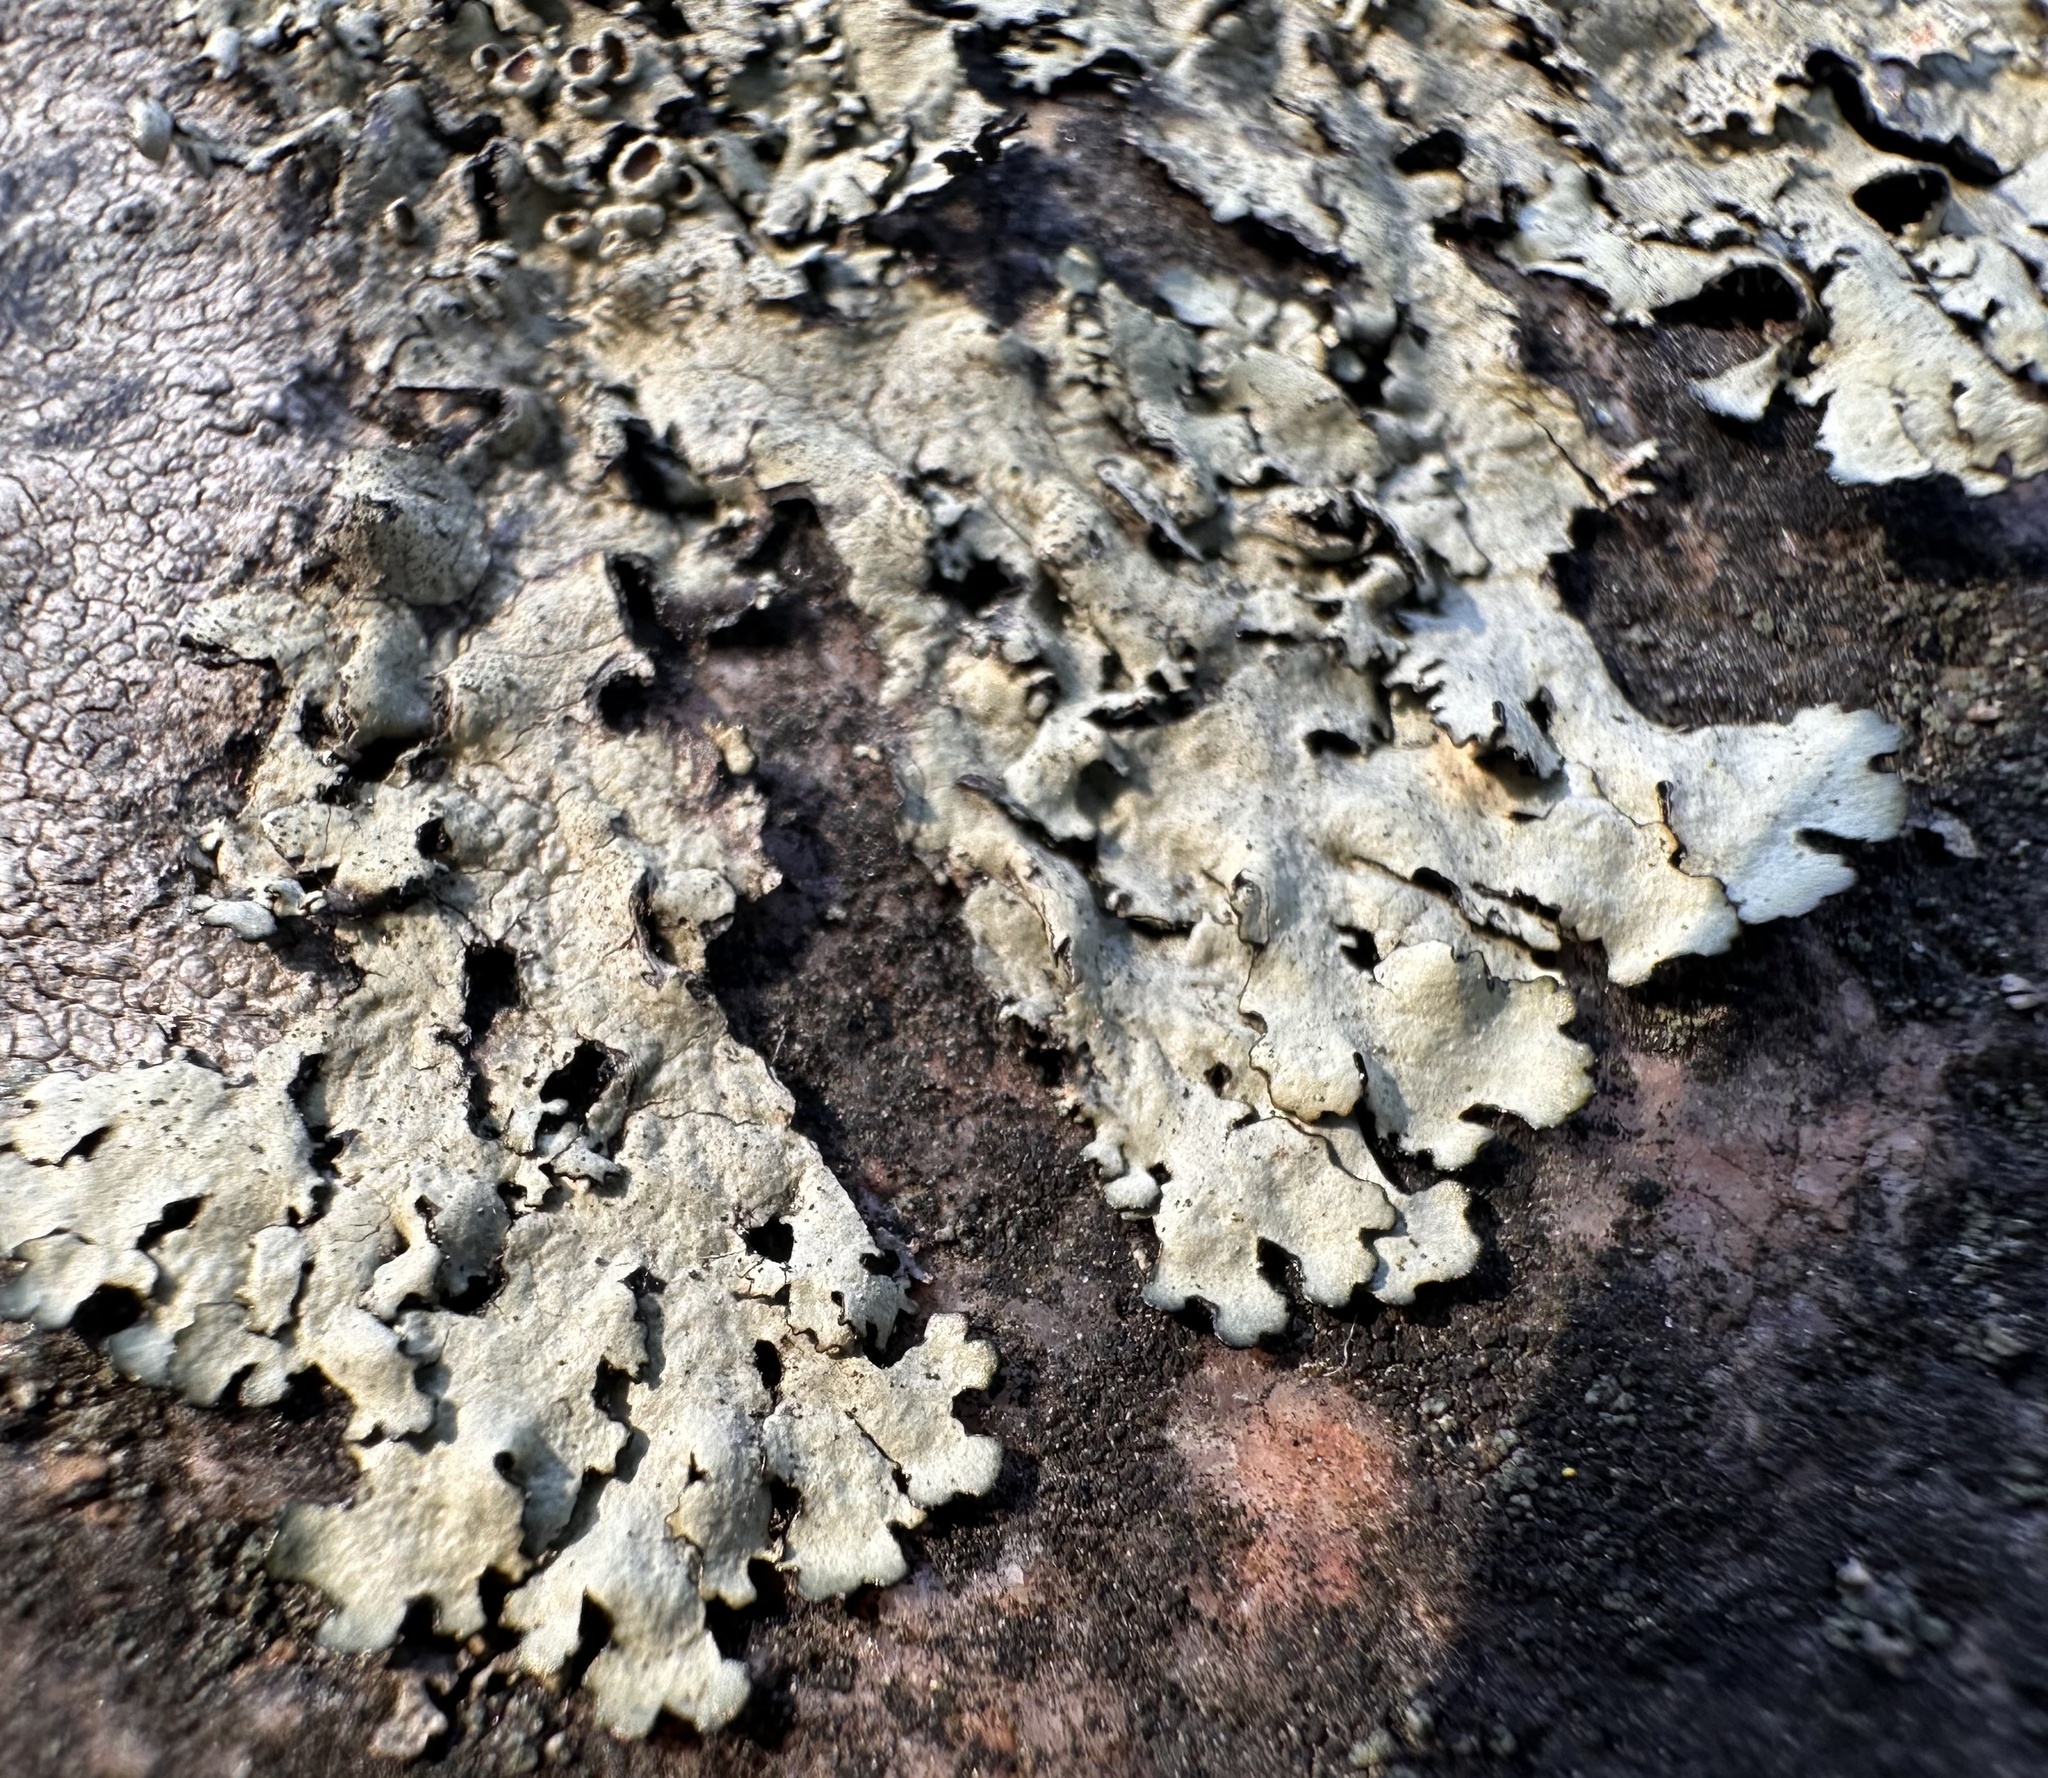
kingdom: Fungi
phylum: Ascomycota
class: Lecanoromycetes
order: Lecanorales
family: Parmeliaceae
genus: Xanthoparmelia
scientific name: Xanthoparmelia stenophylla
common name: Shingled rock shield
